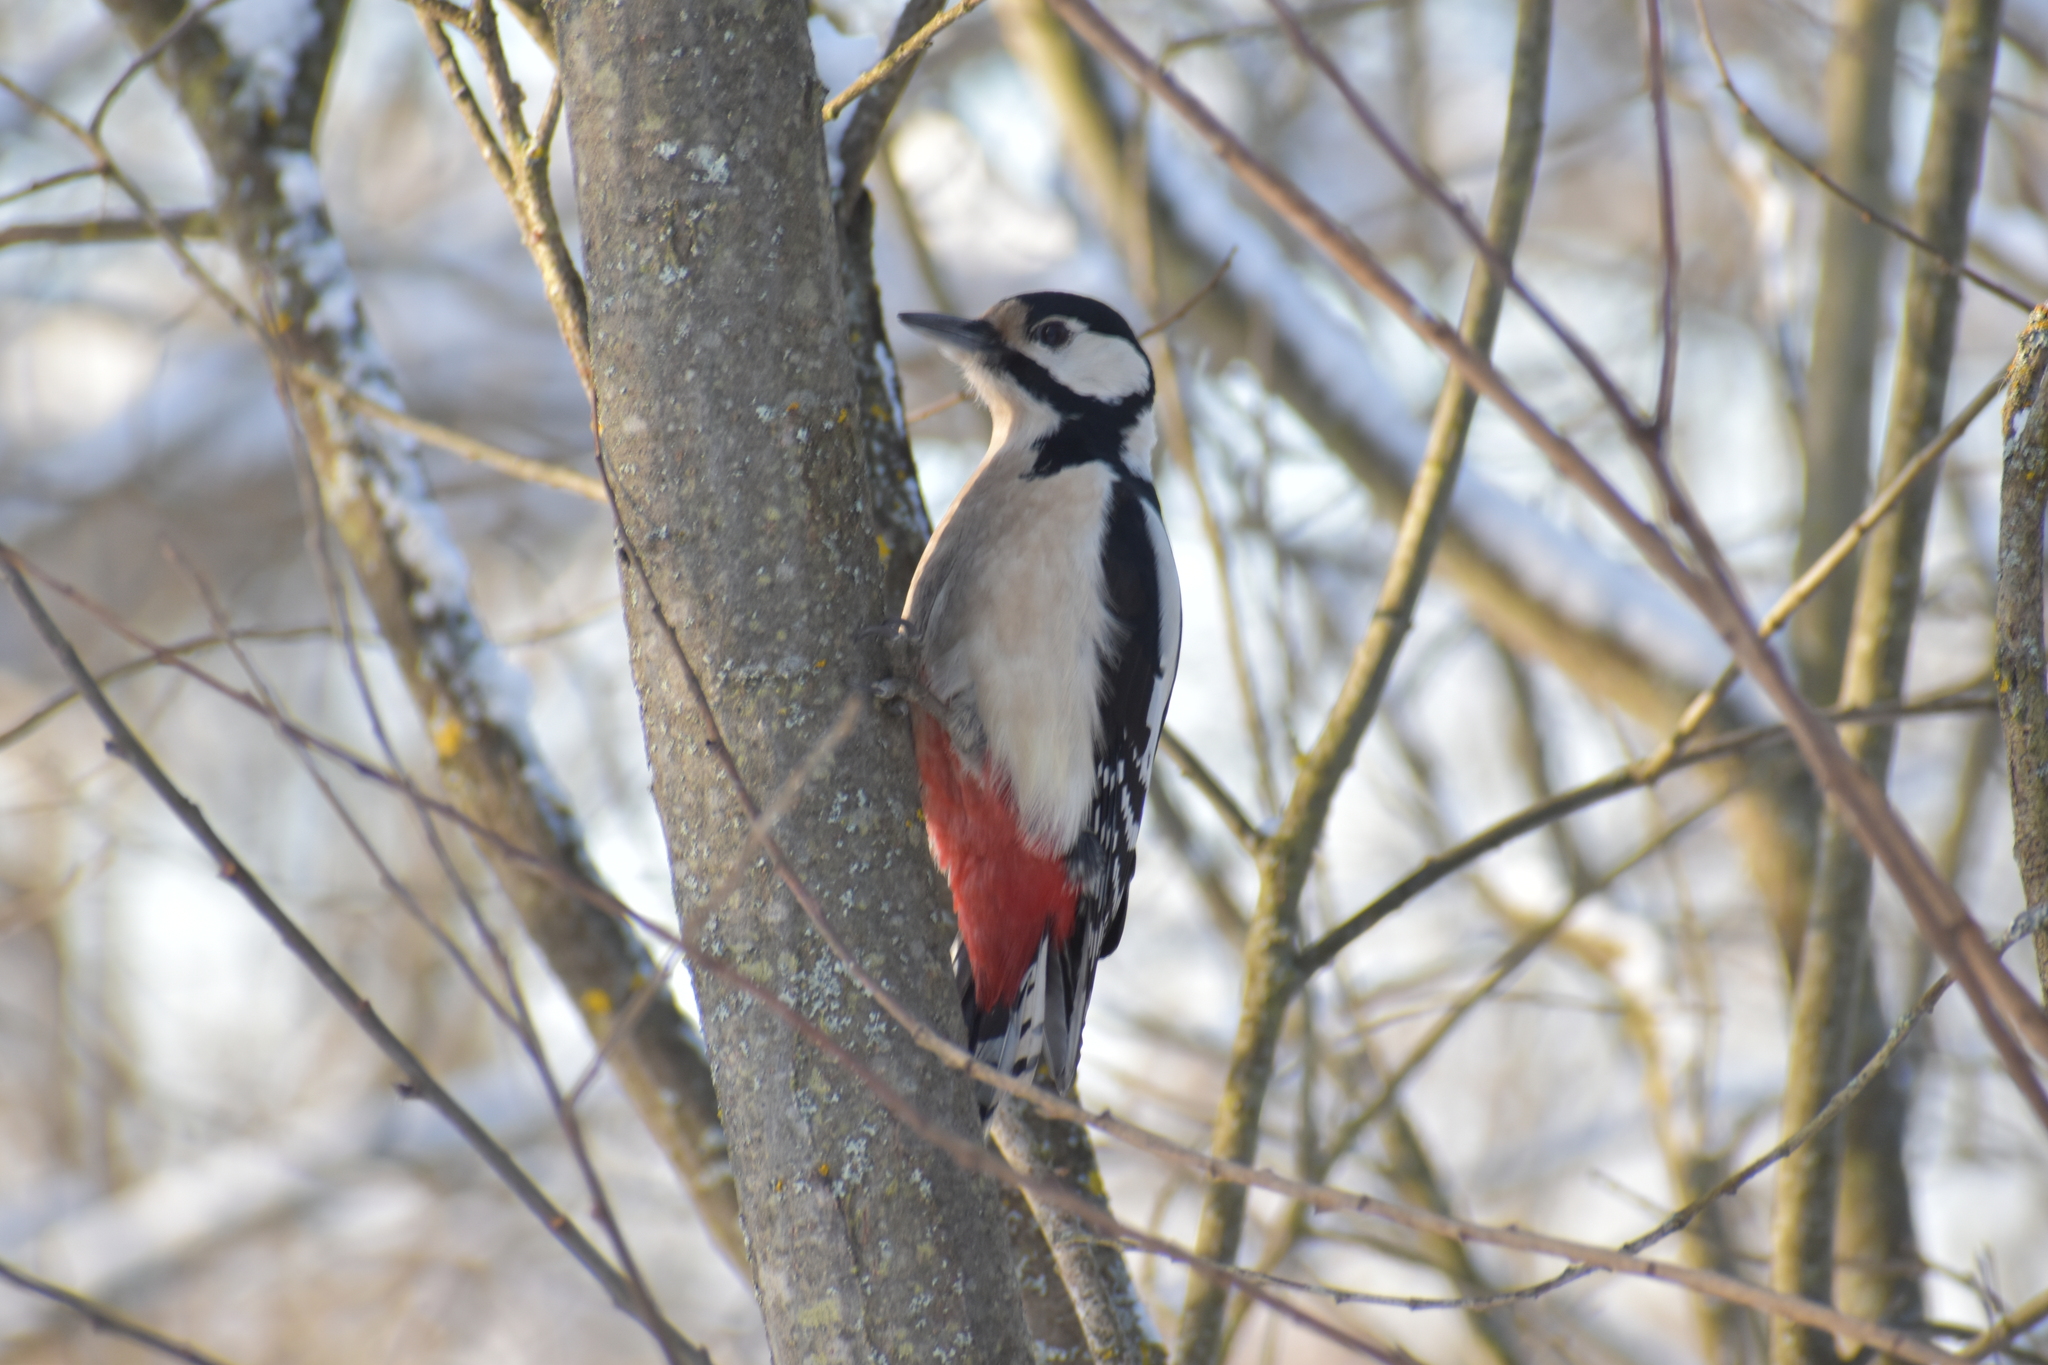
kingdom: Animalia
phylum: Chordata
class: Aves
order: Piciformes
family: Picidae
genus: Dendrocopos
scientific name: Dendrocopos major
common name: Great spotted woodpecker
